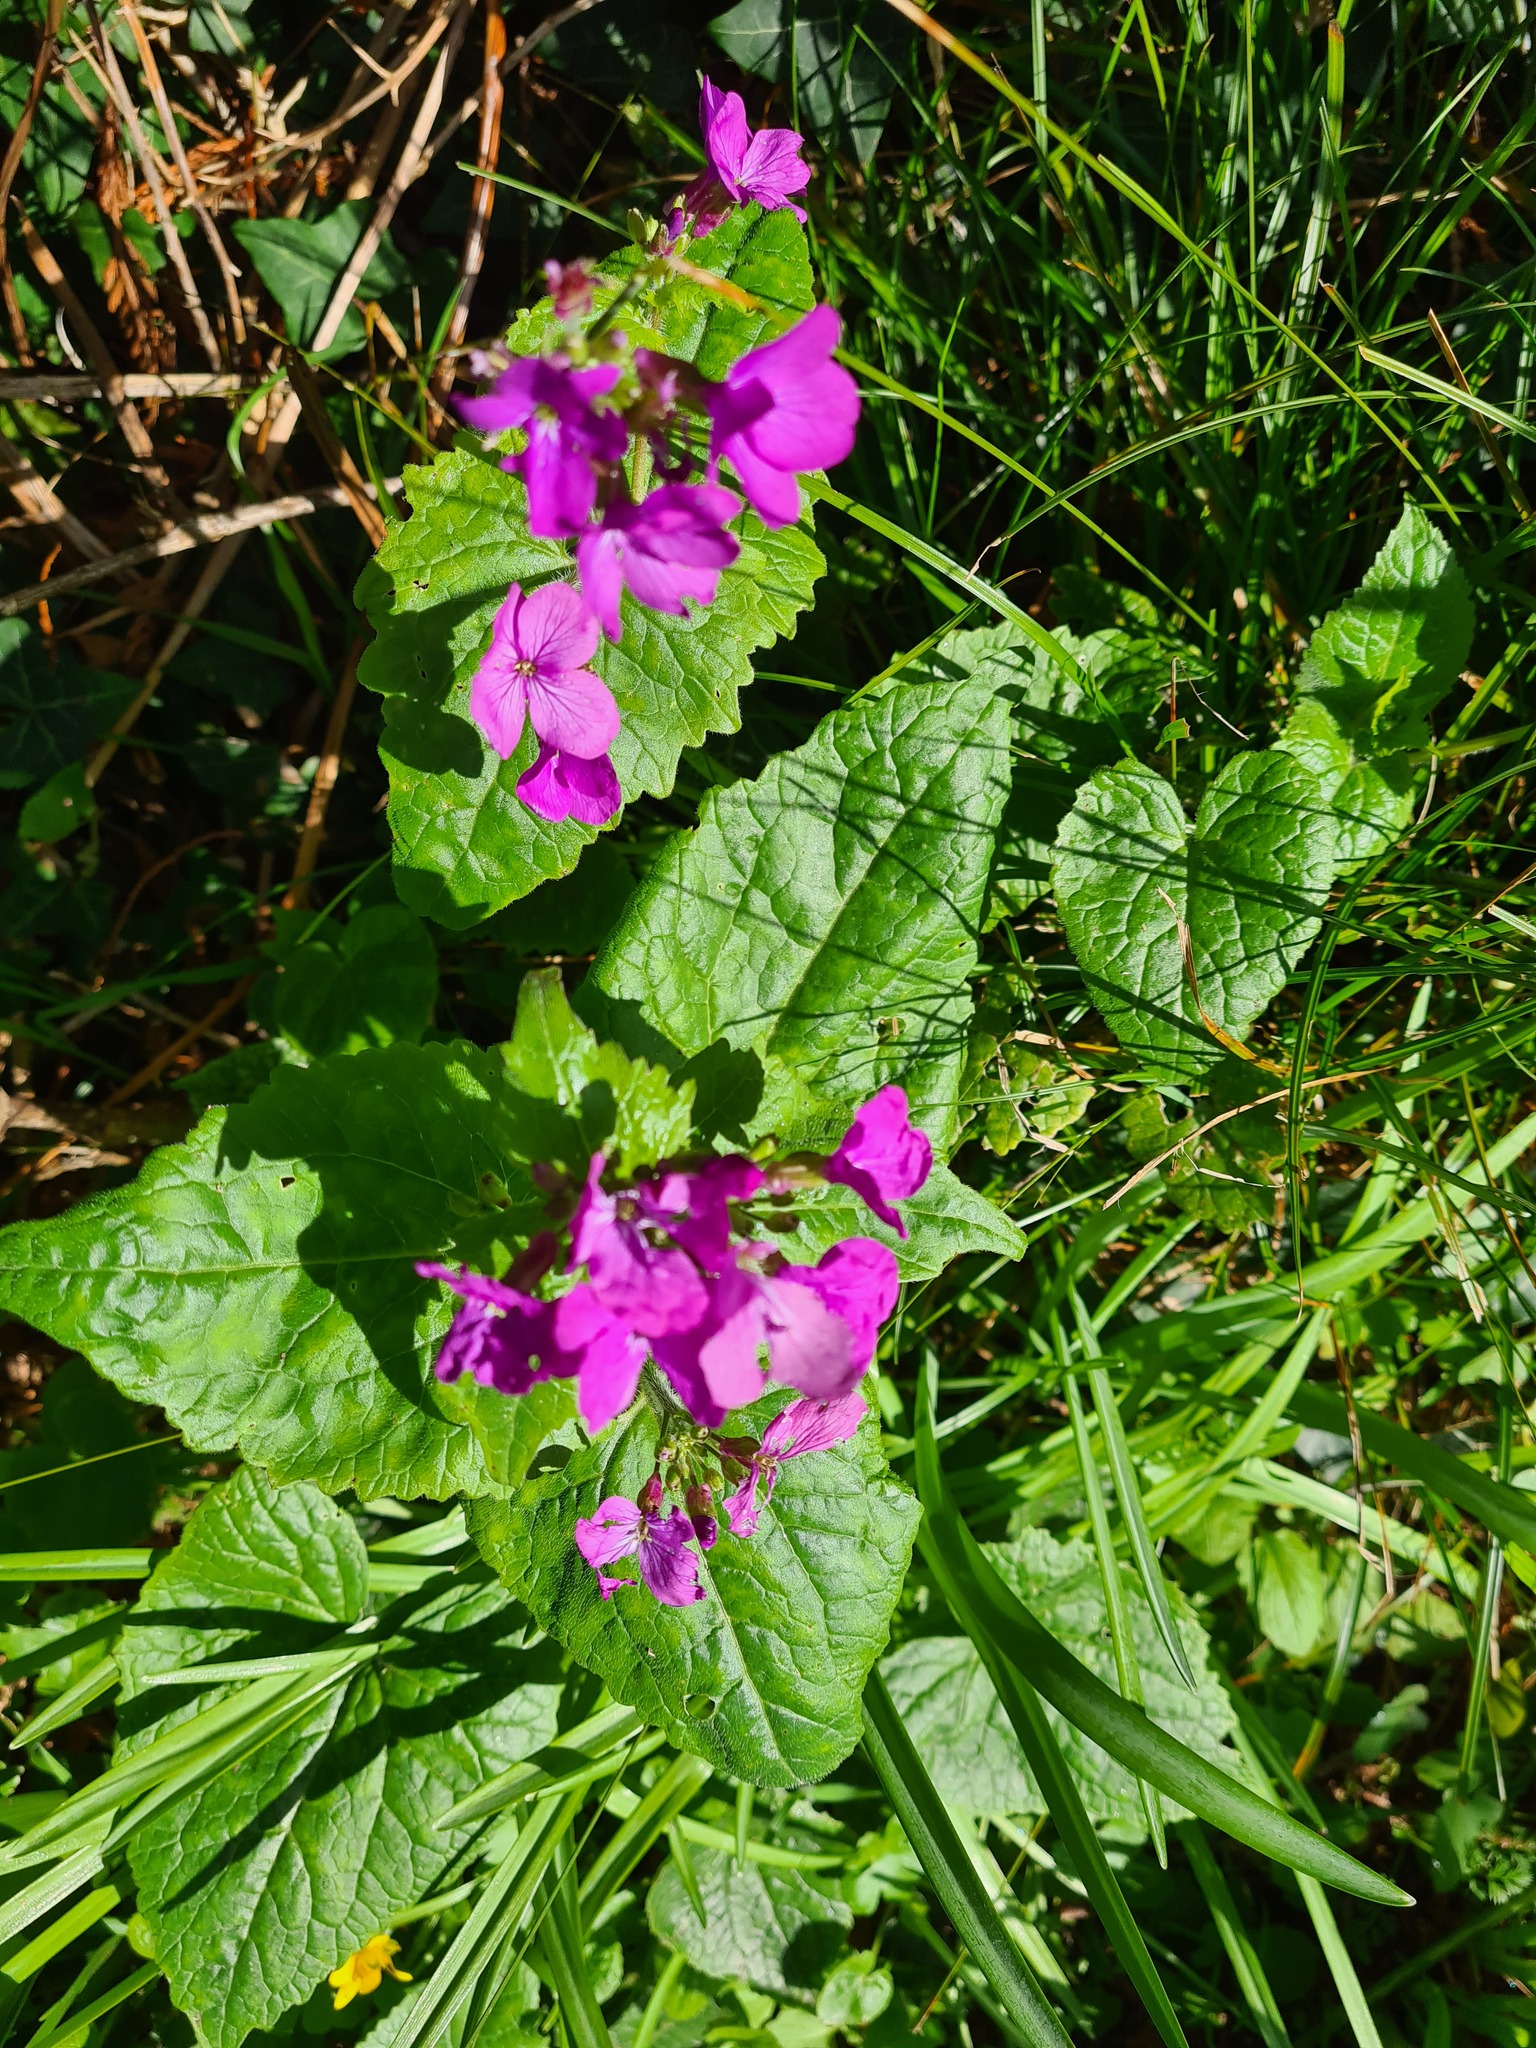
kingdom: Plantae
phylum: Tracheophyta
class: Magnoliopsida
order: Brassicales
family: Brassicaceae
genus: Lunaria
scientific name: Lunaria annua
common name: Honesty
